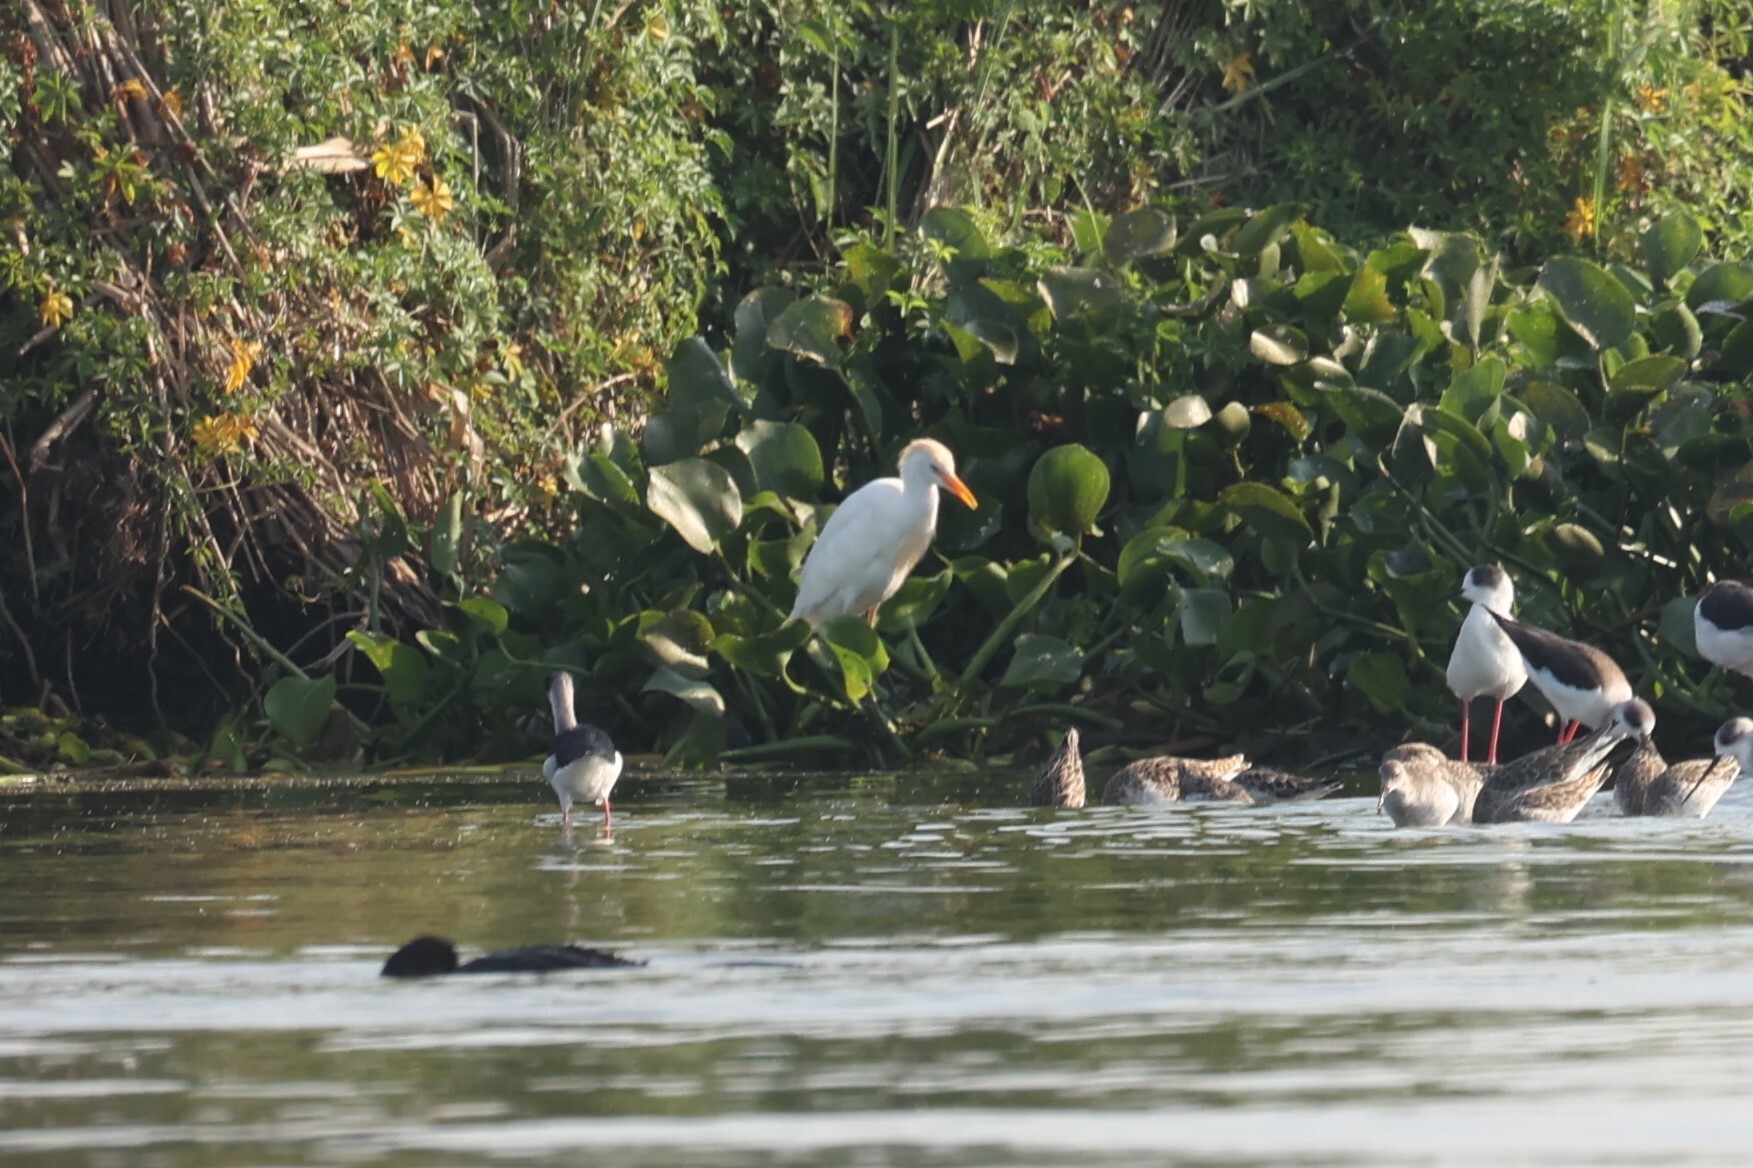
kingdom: Animalia
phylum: Chordata
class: Aves
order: Pelecaniformes
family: Ardeidae
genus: Bubulcus
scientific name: Bubulcus ibis
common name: Cattle egret
